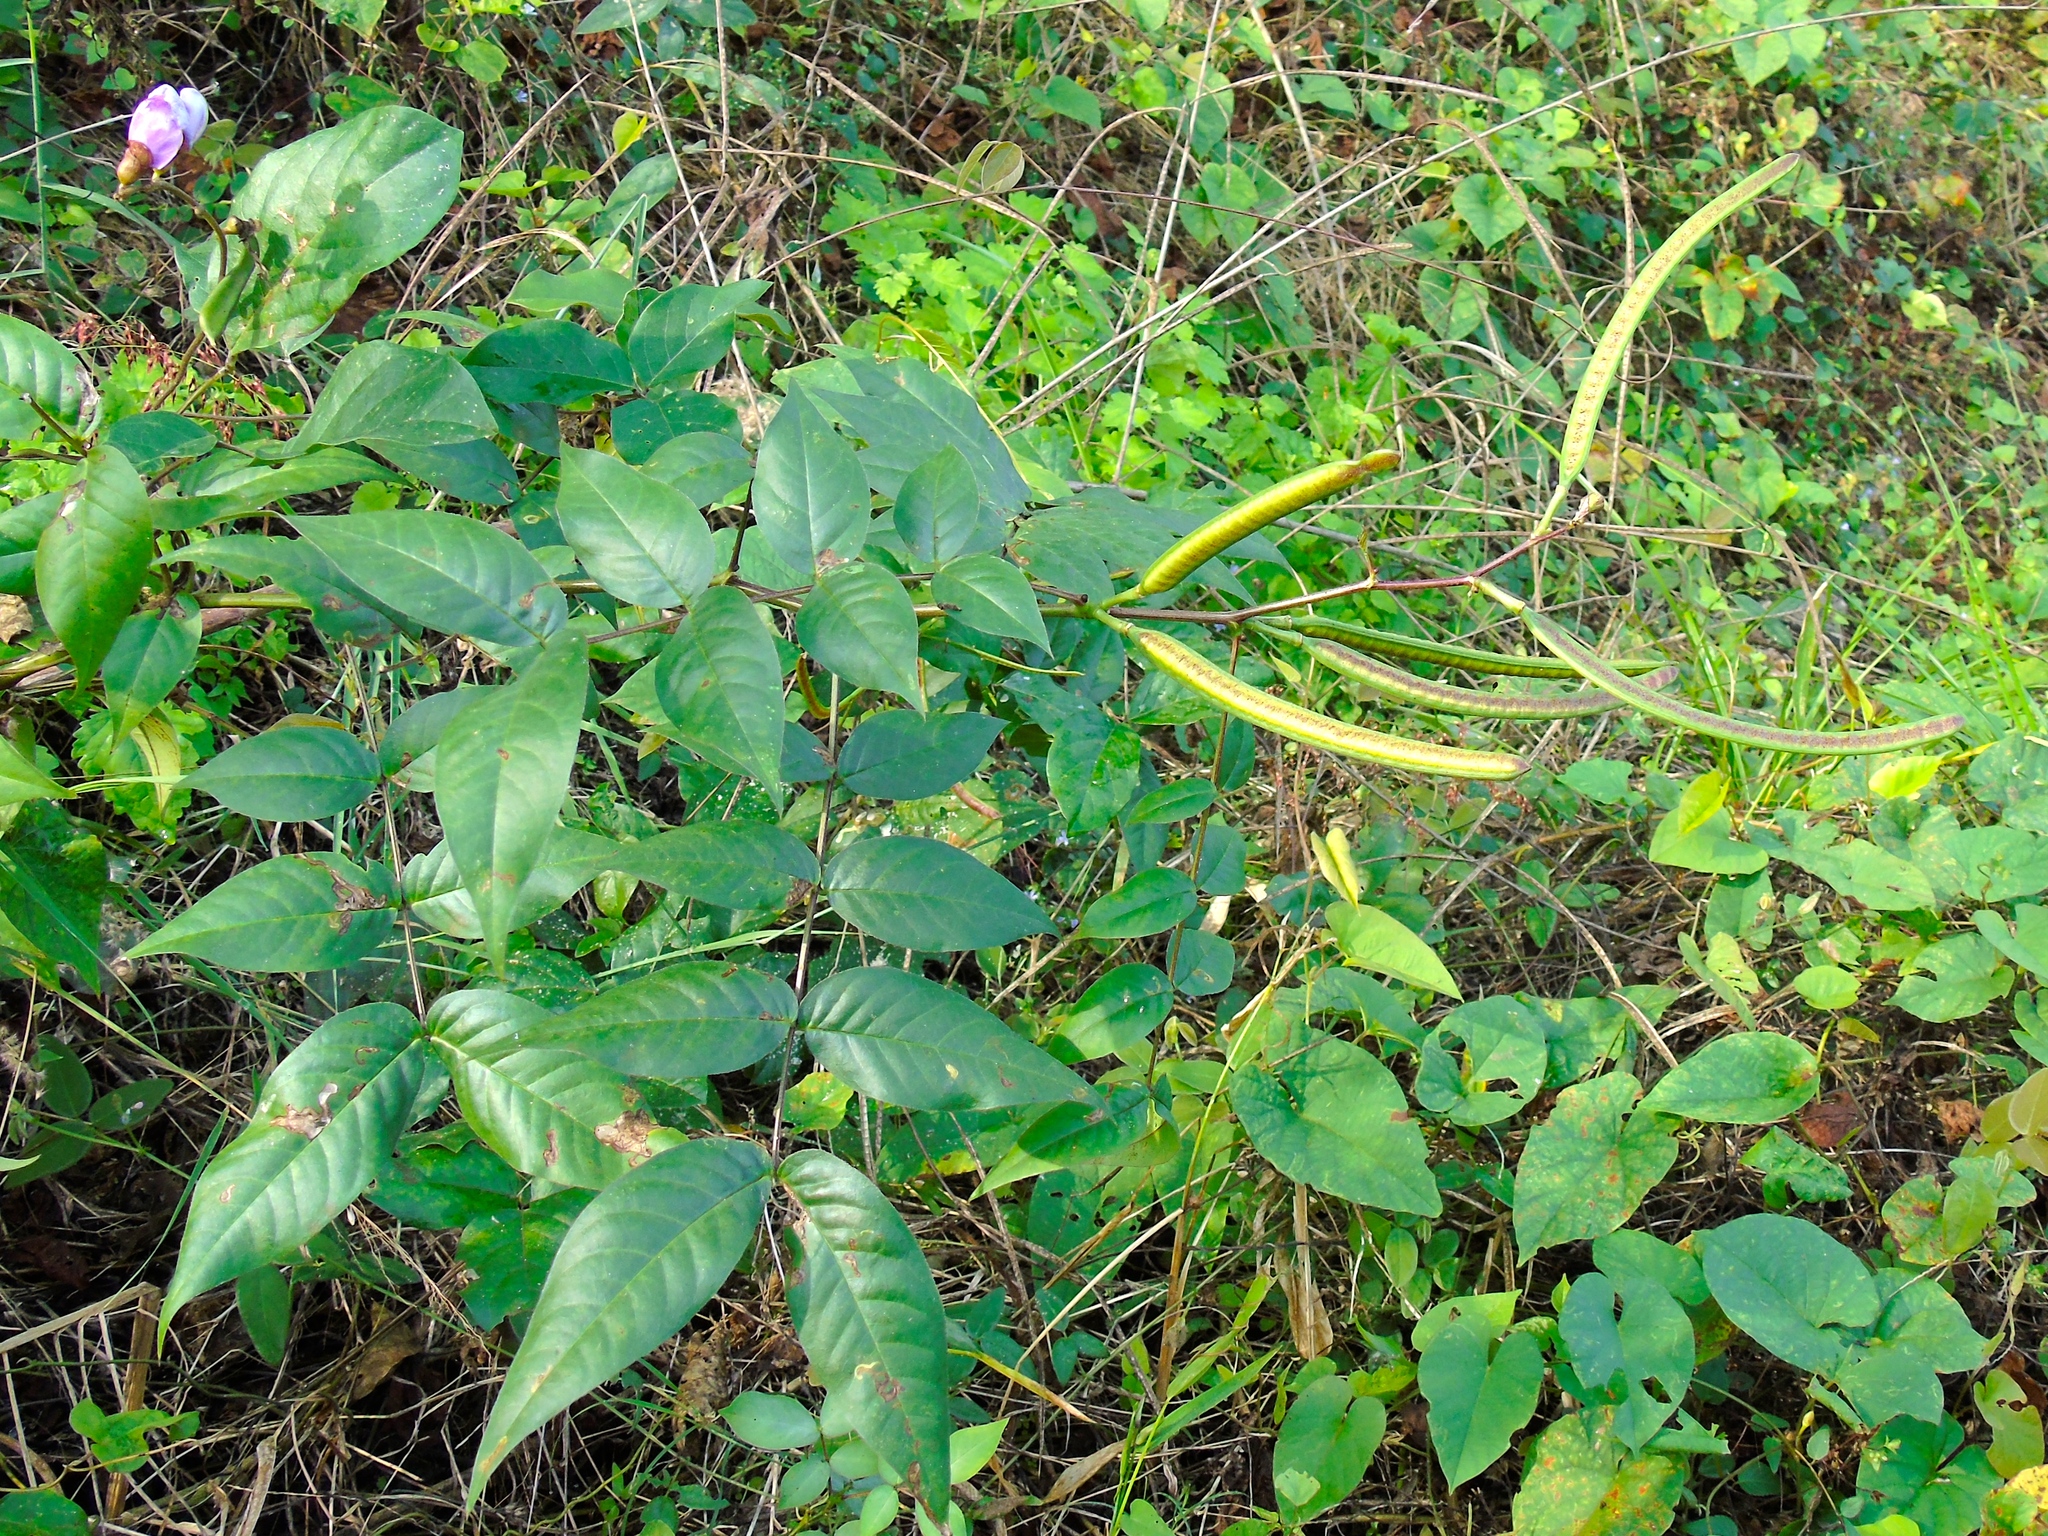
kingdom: Plantae
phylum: Tracheophyta
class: Magnoliopsida
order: Fabales
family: Fabaceae
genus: Senna
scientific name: Senna occidentalis
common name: Septicweed
